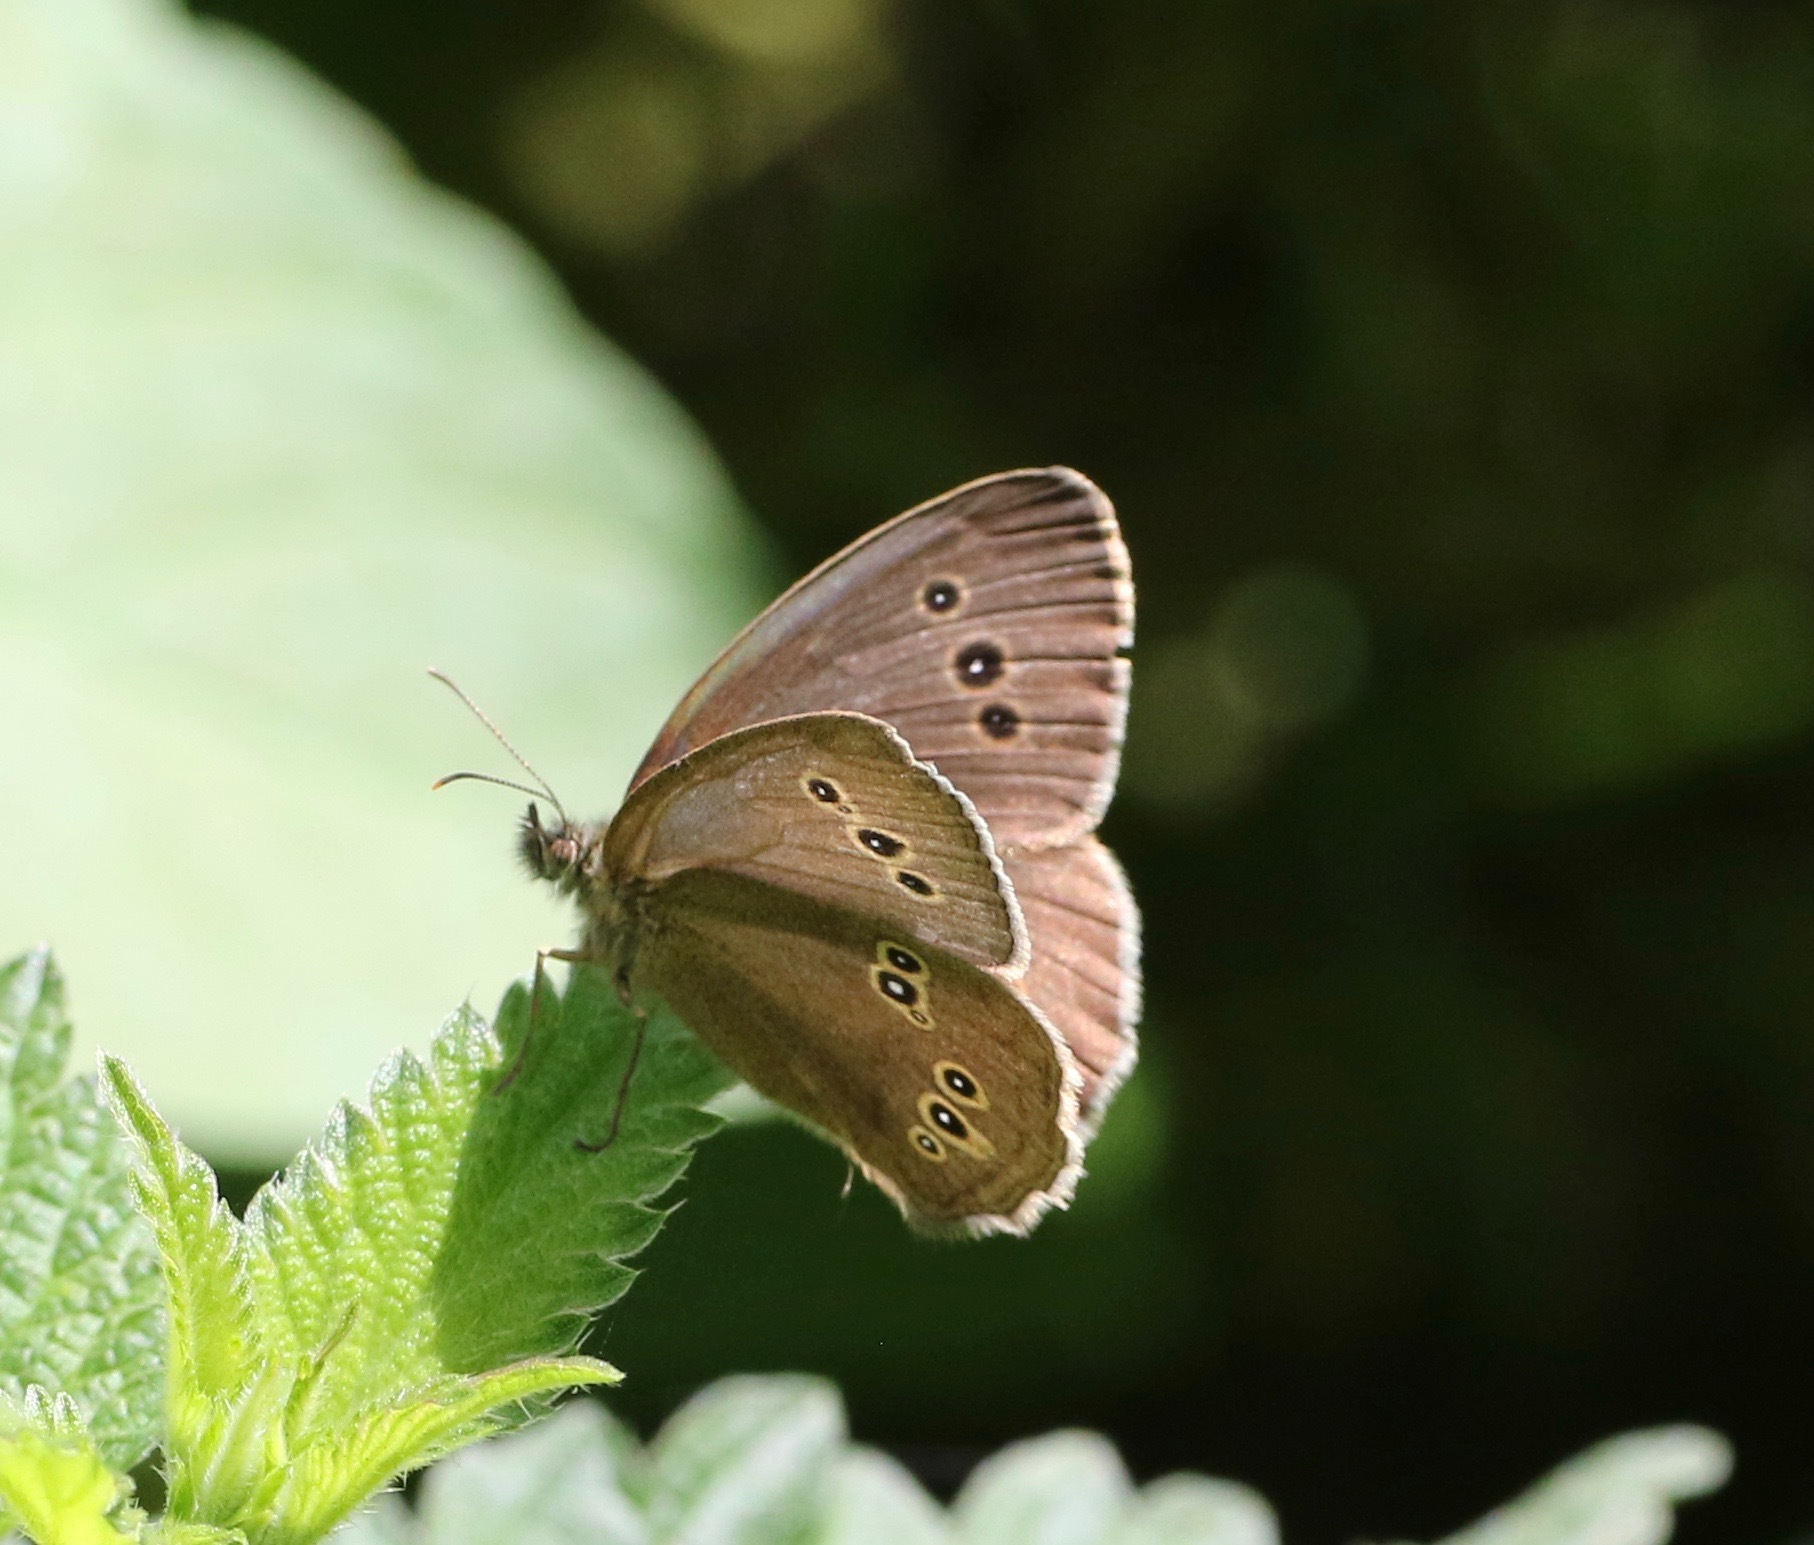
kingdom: Animalia
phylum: Arthropoda
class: Insecta
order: Lepidoptera
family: Nymphalidae
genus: Aphantopus
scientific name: Aphantopus hyperantus
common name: Ringlet
